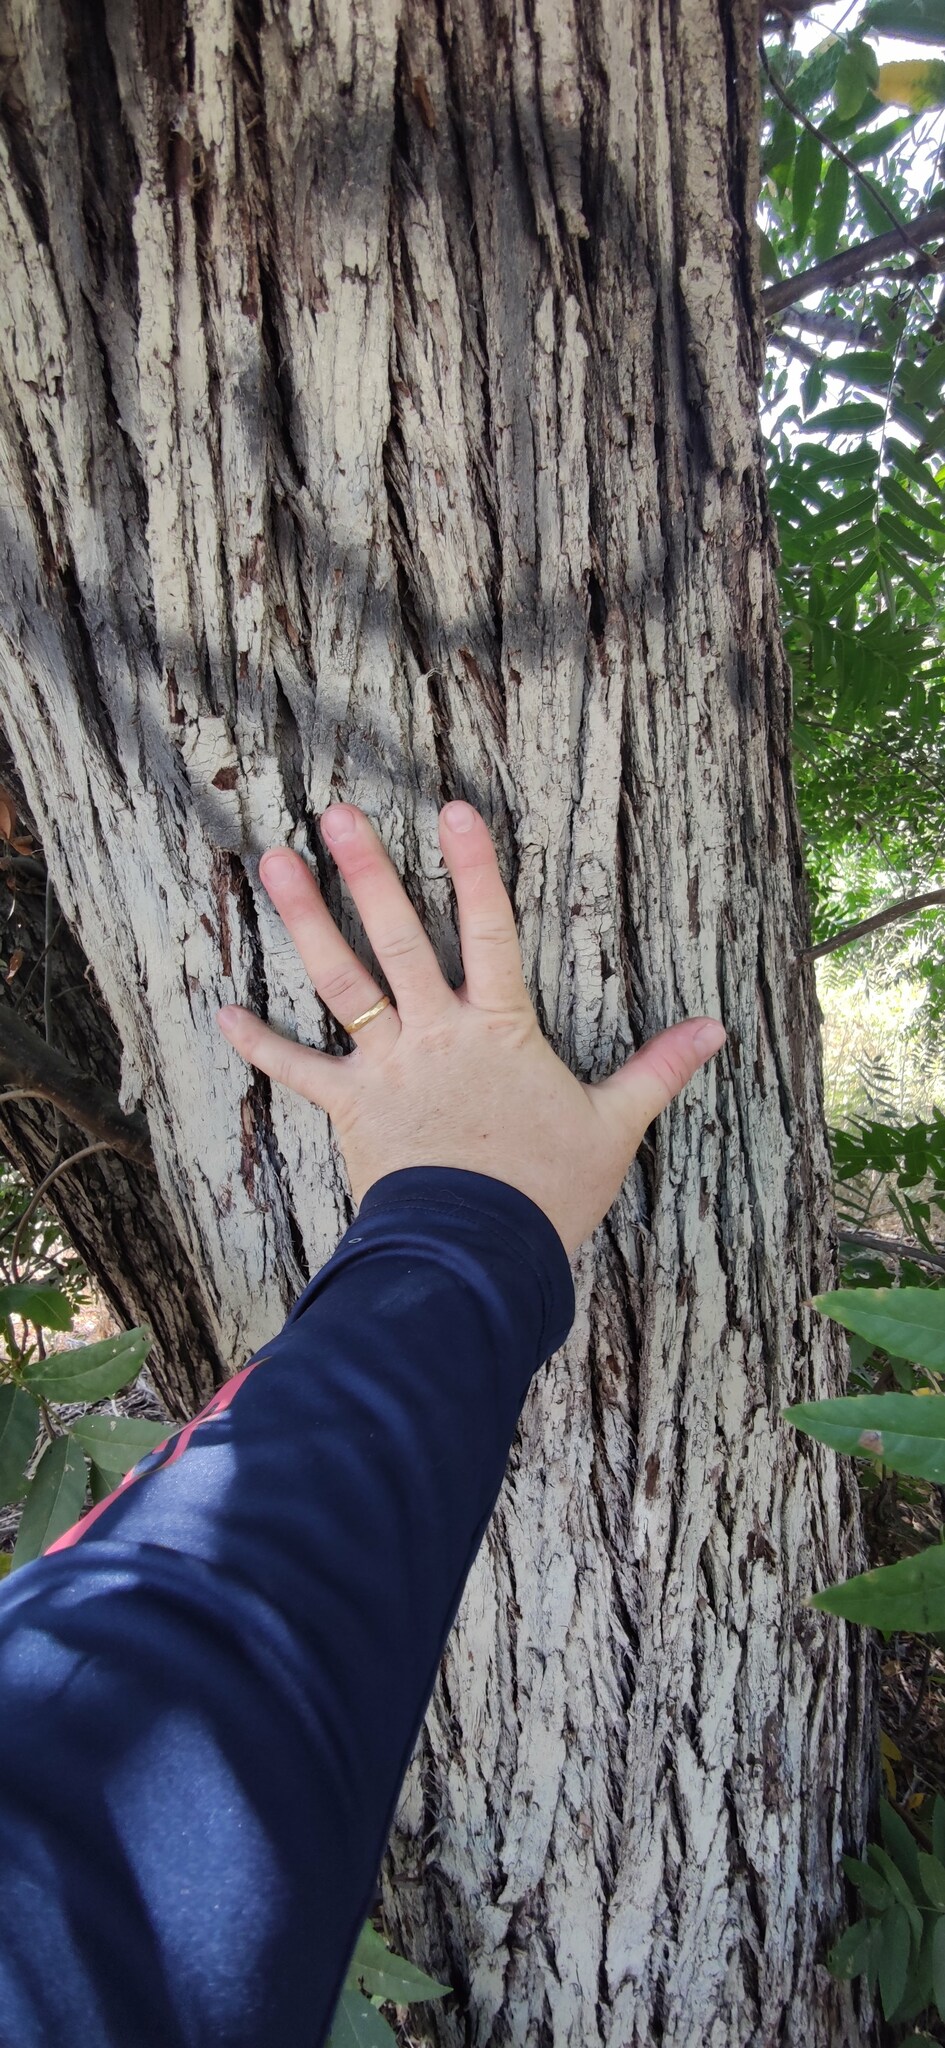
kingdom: Plantae
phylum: Tracheophyta
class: Magnoliopsida
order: Fagales
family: Juglandaceae
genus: Juglans
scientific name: Juglans californica
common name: Southern california black walnut
